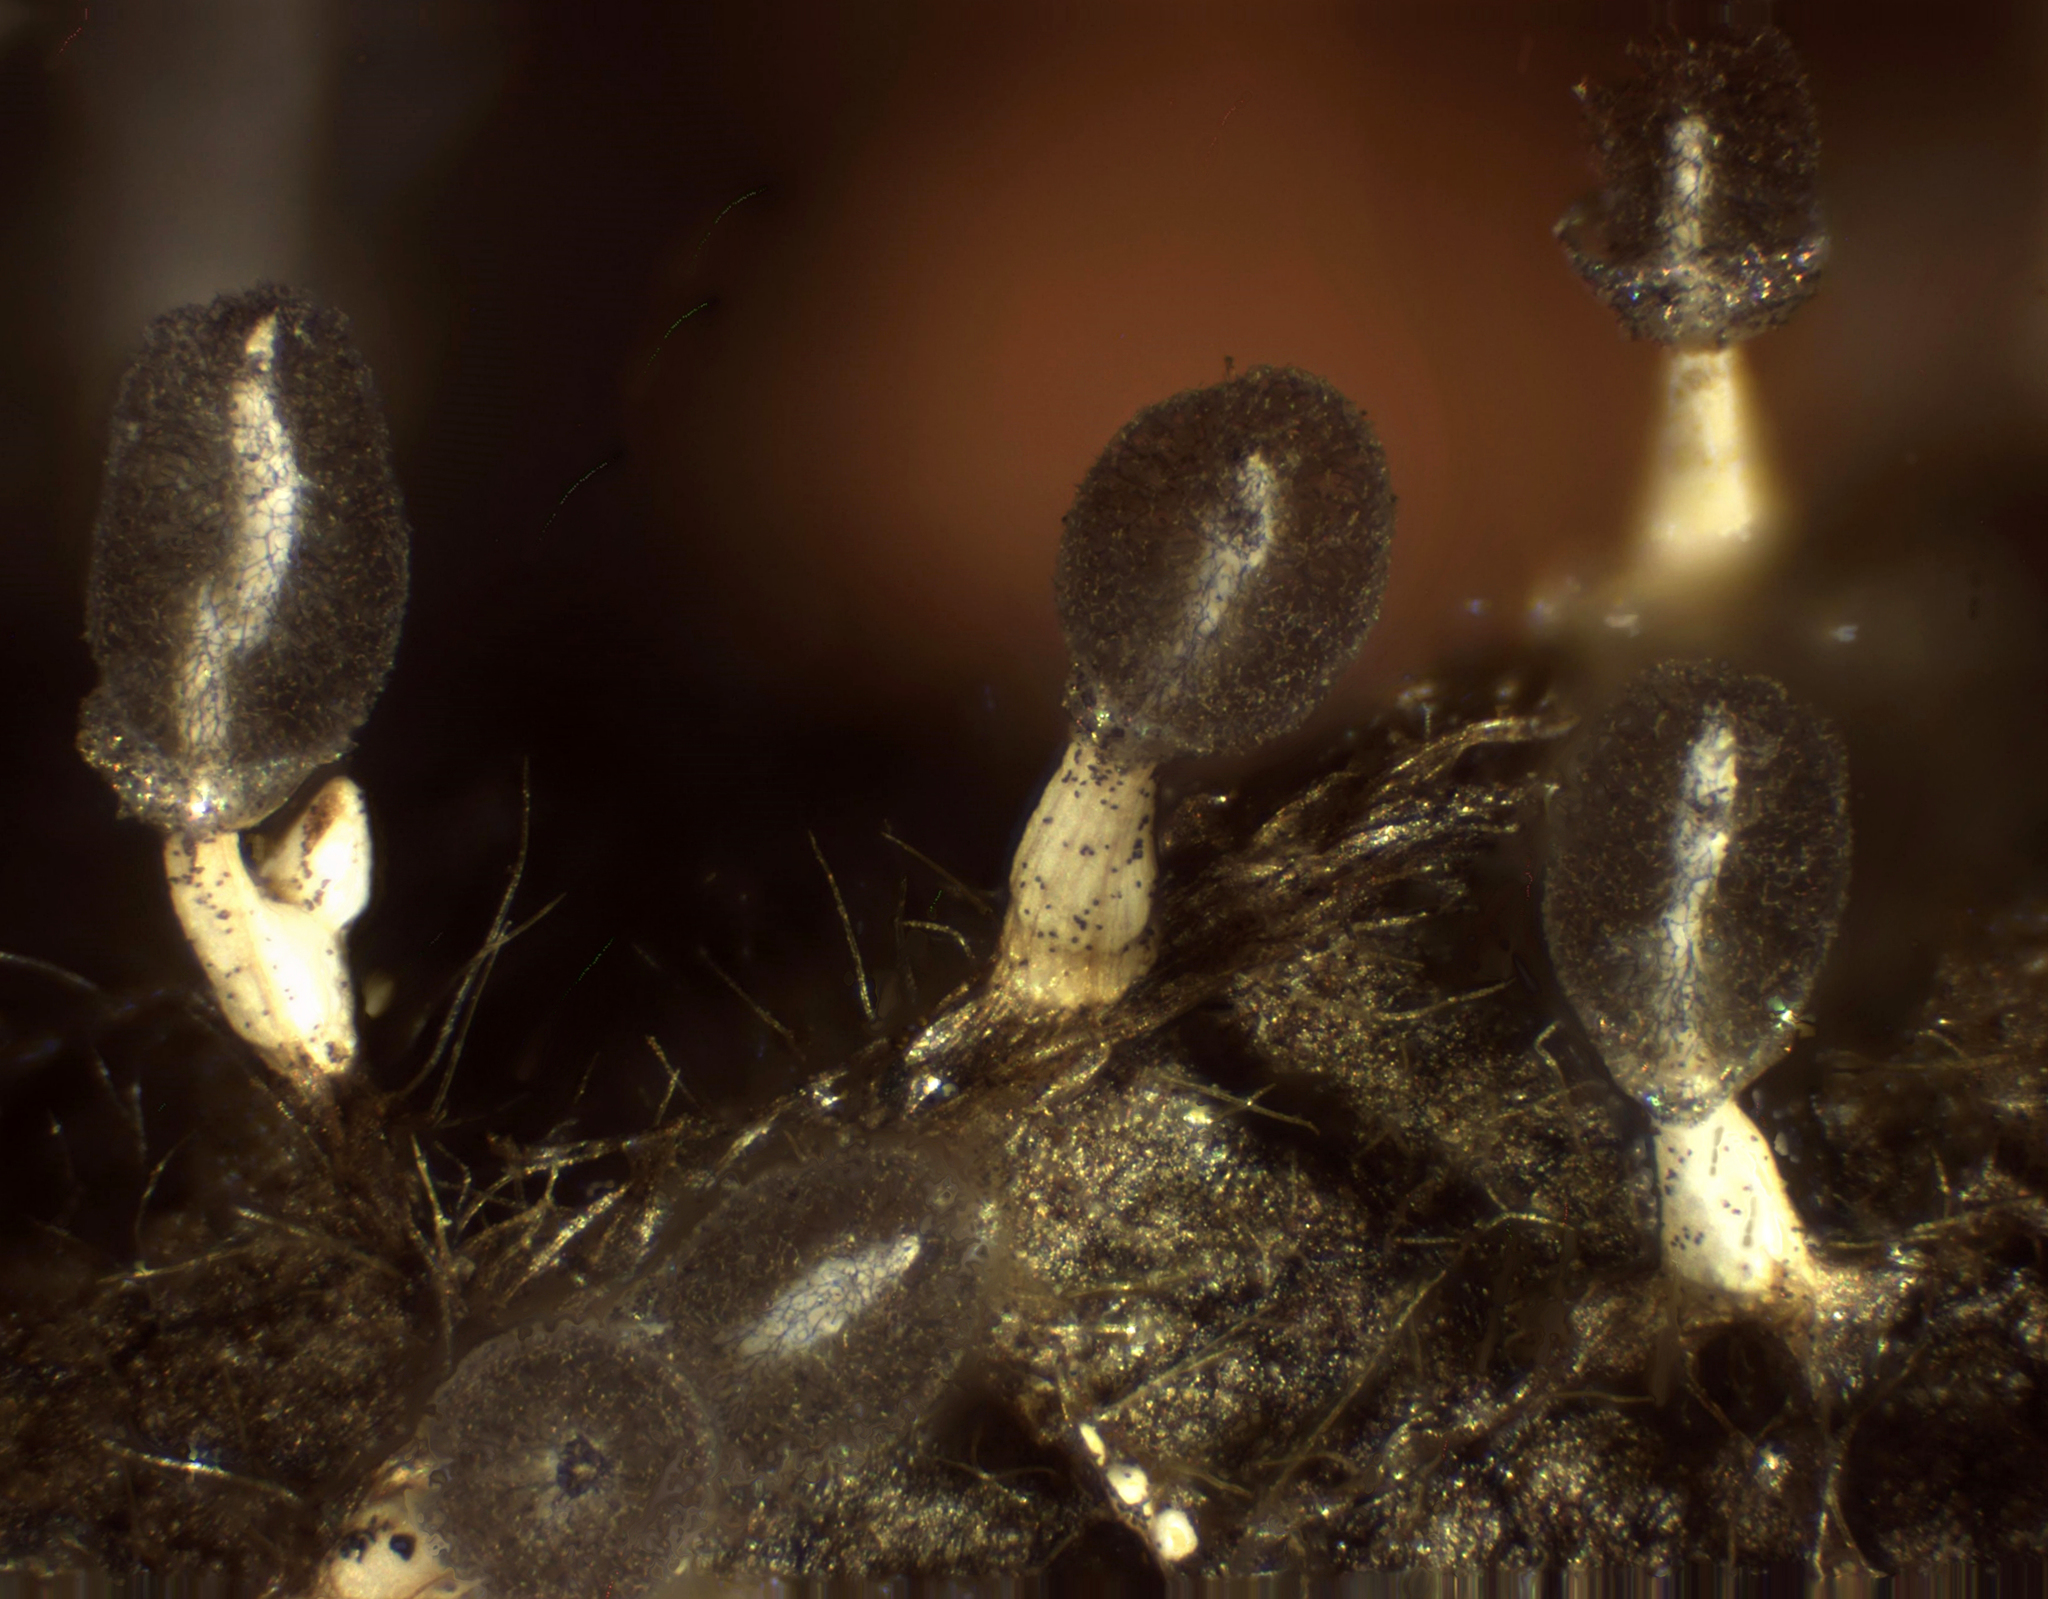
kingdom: Protozoa
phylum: Mycetozoa
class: Myxomycetes
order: Physarales
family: Didymiaceae
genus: Diachea
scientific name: Diachea leucopodia
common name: White-footed slime
